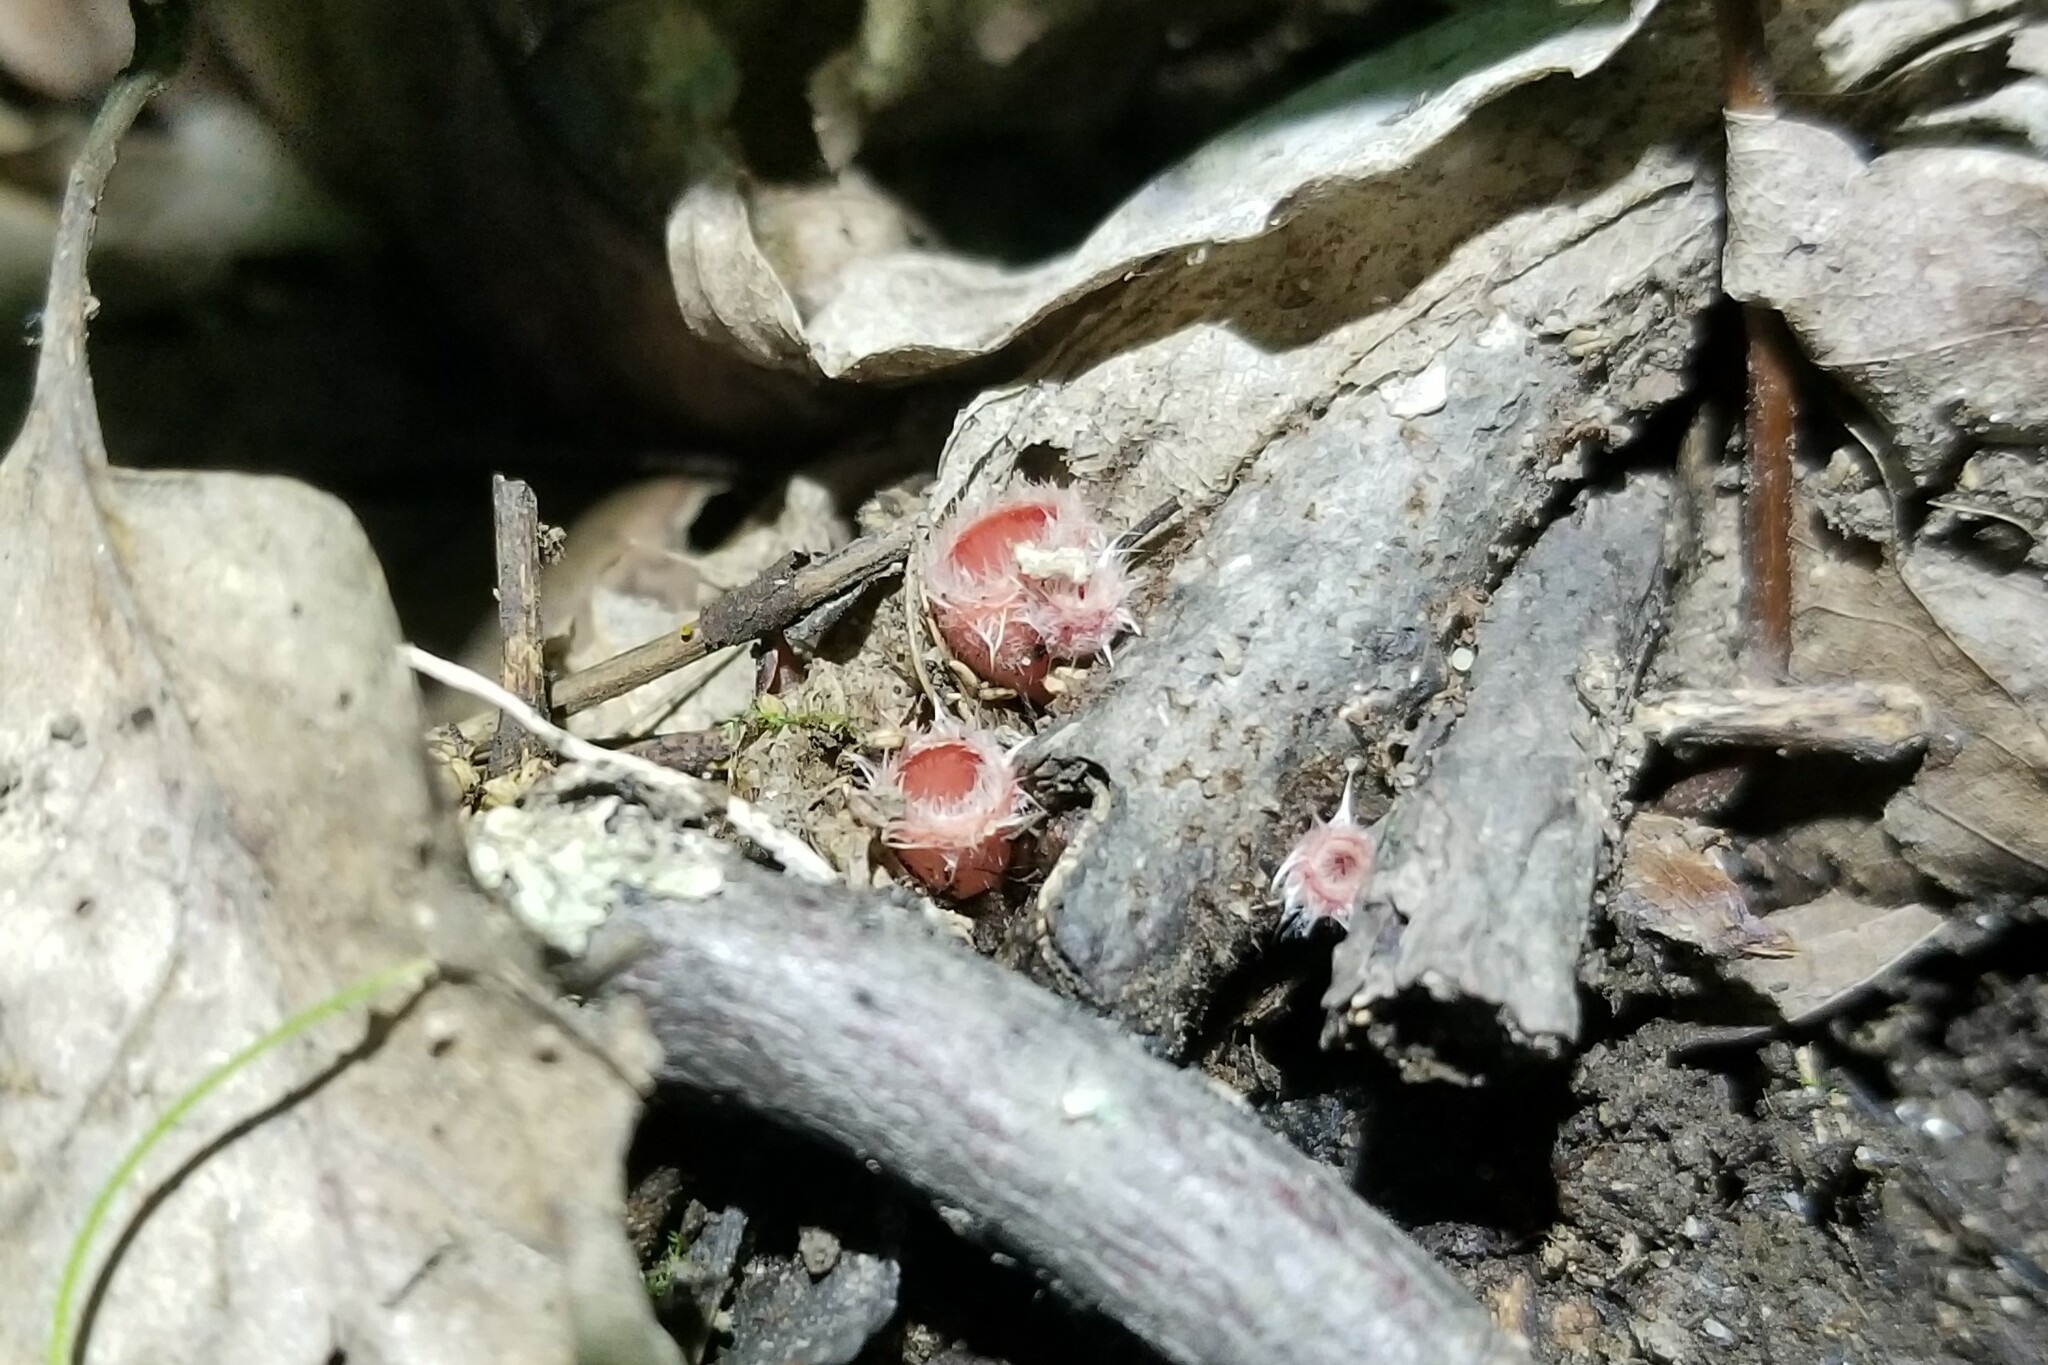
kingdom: Fungi
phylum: Ascomycota
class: Pezizomycetes
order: Pezizales
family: Sarcoscyphaceae
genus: Microstoma
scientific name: Microstoma floccosum
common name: Pink fringed faery cup
